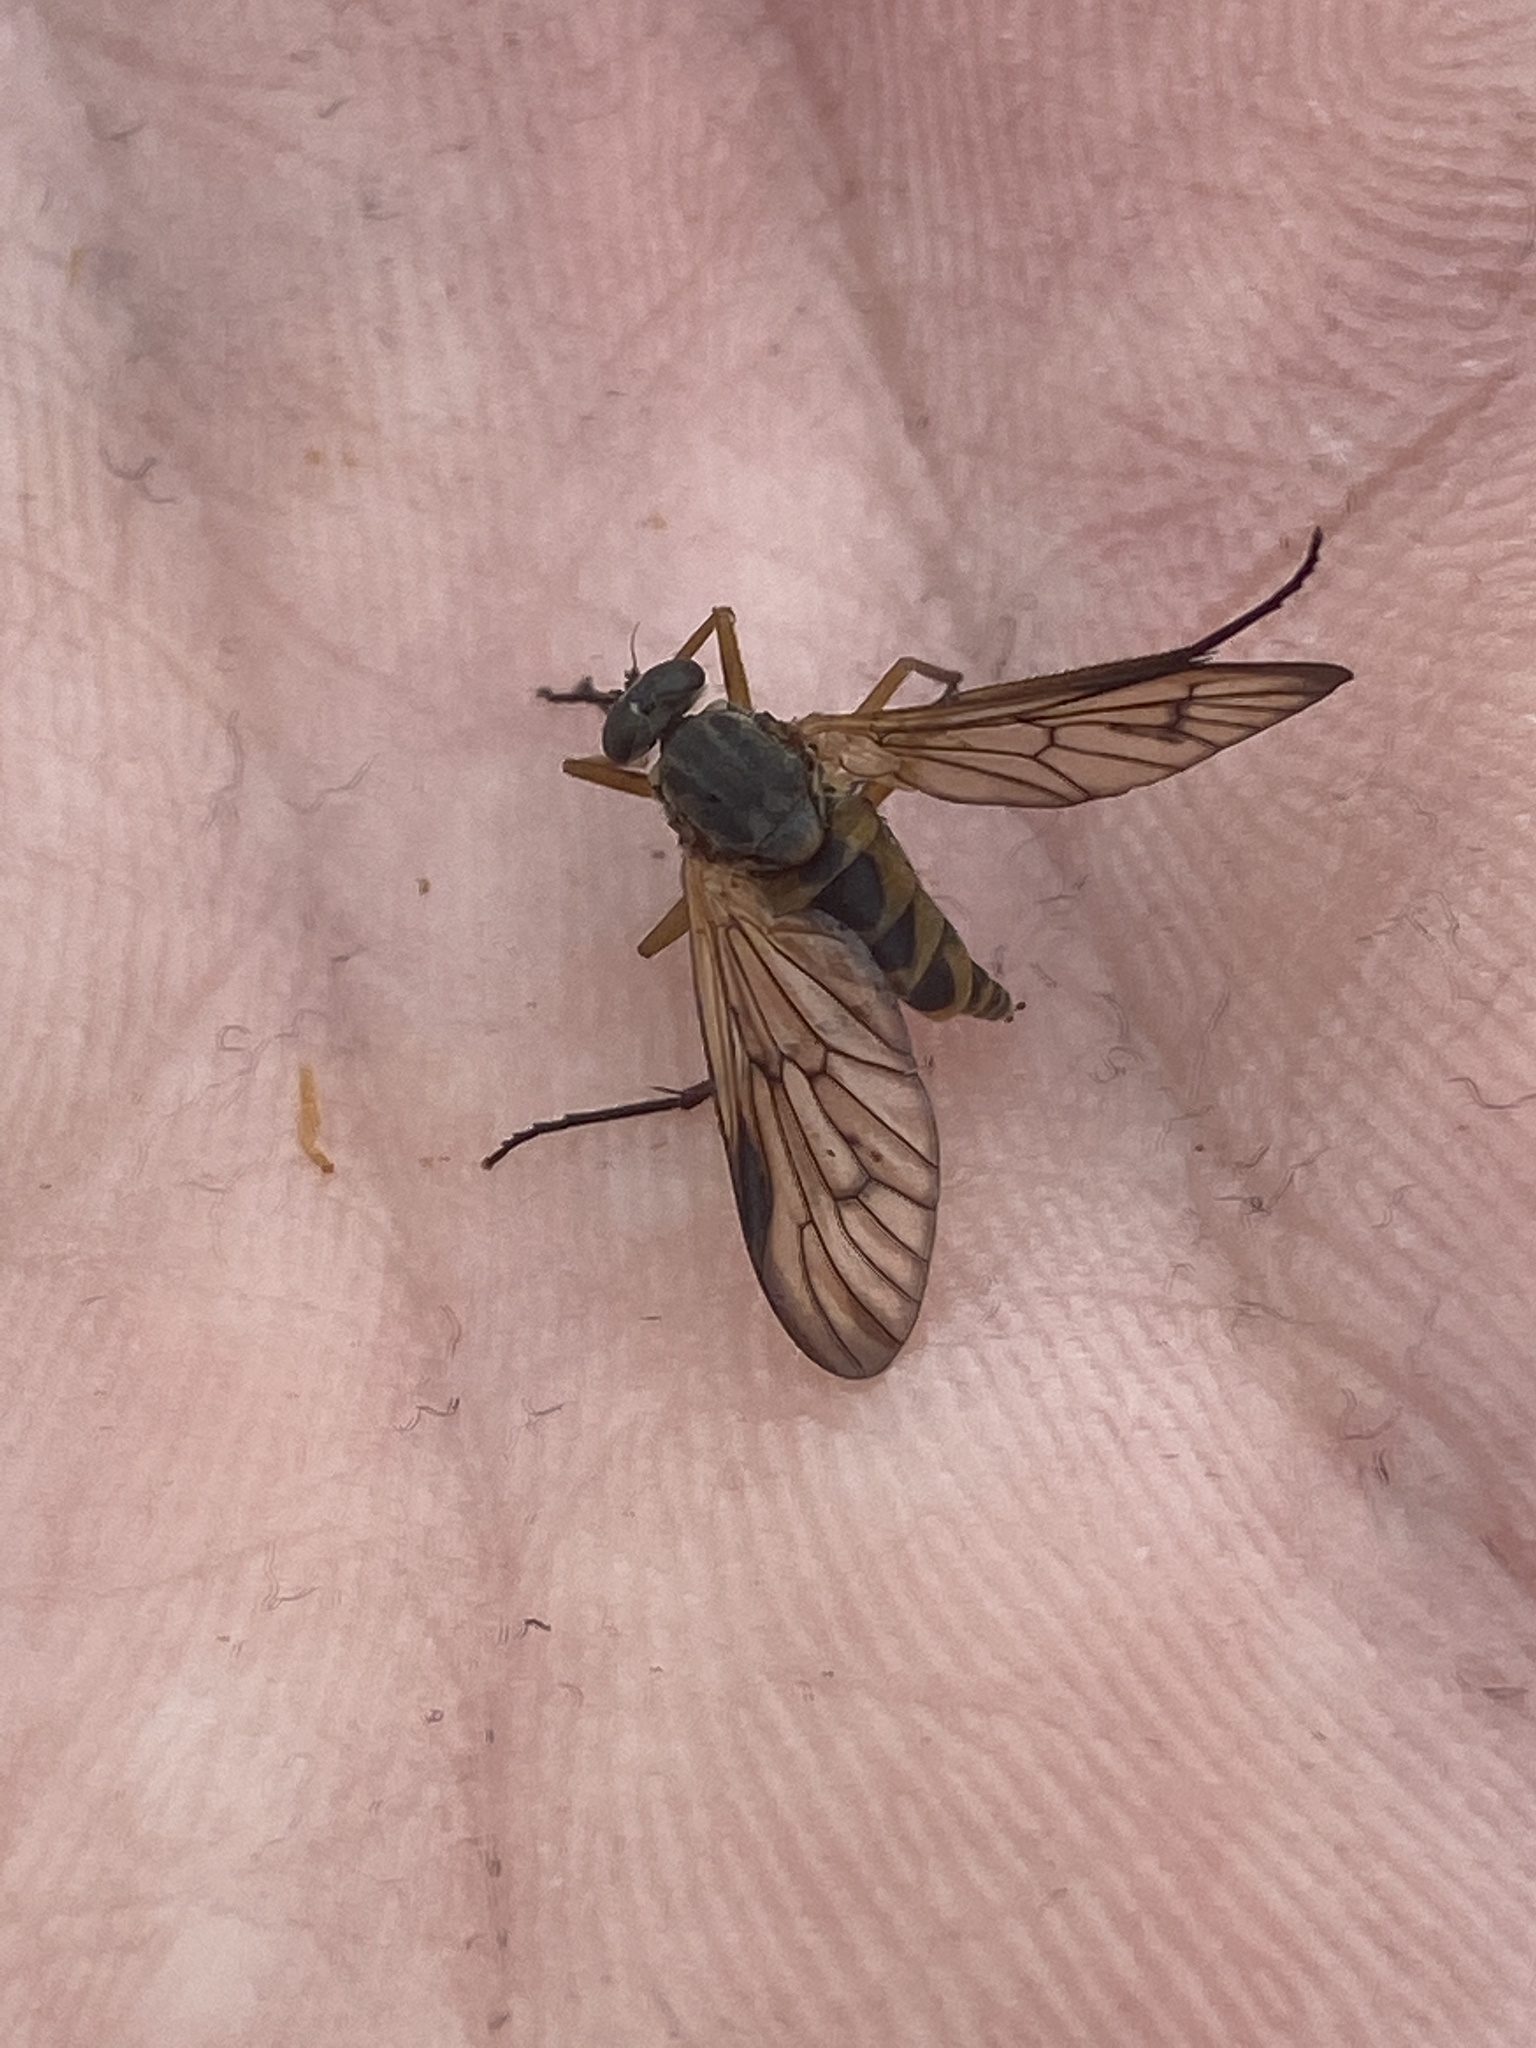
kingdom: Animalia
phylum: Arthropoda
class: Insecta
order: Diptera
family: Rhagionidae
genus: Rhagio
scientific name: Rhagio vitripennis
